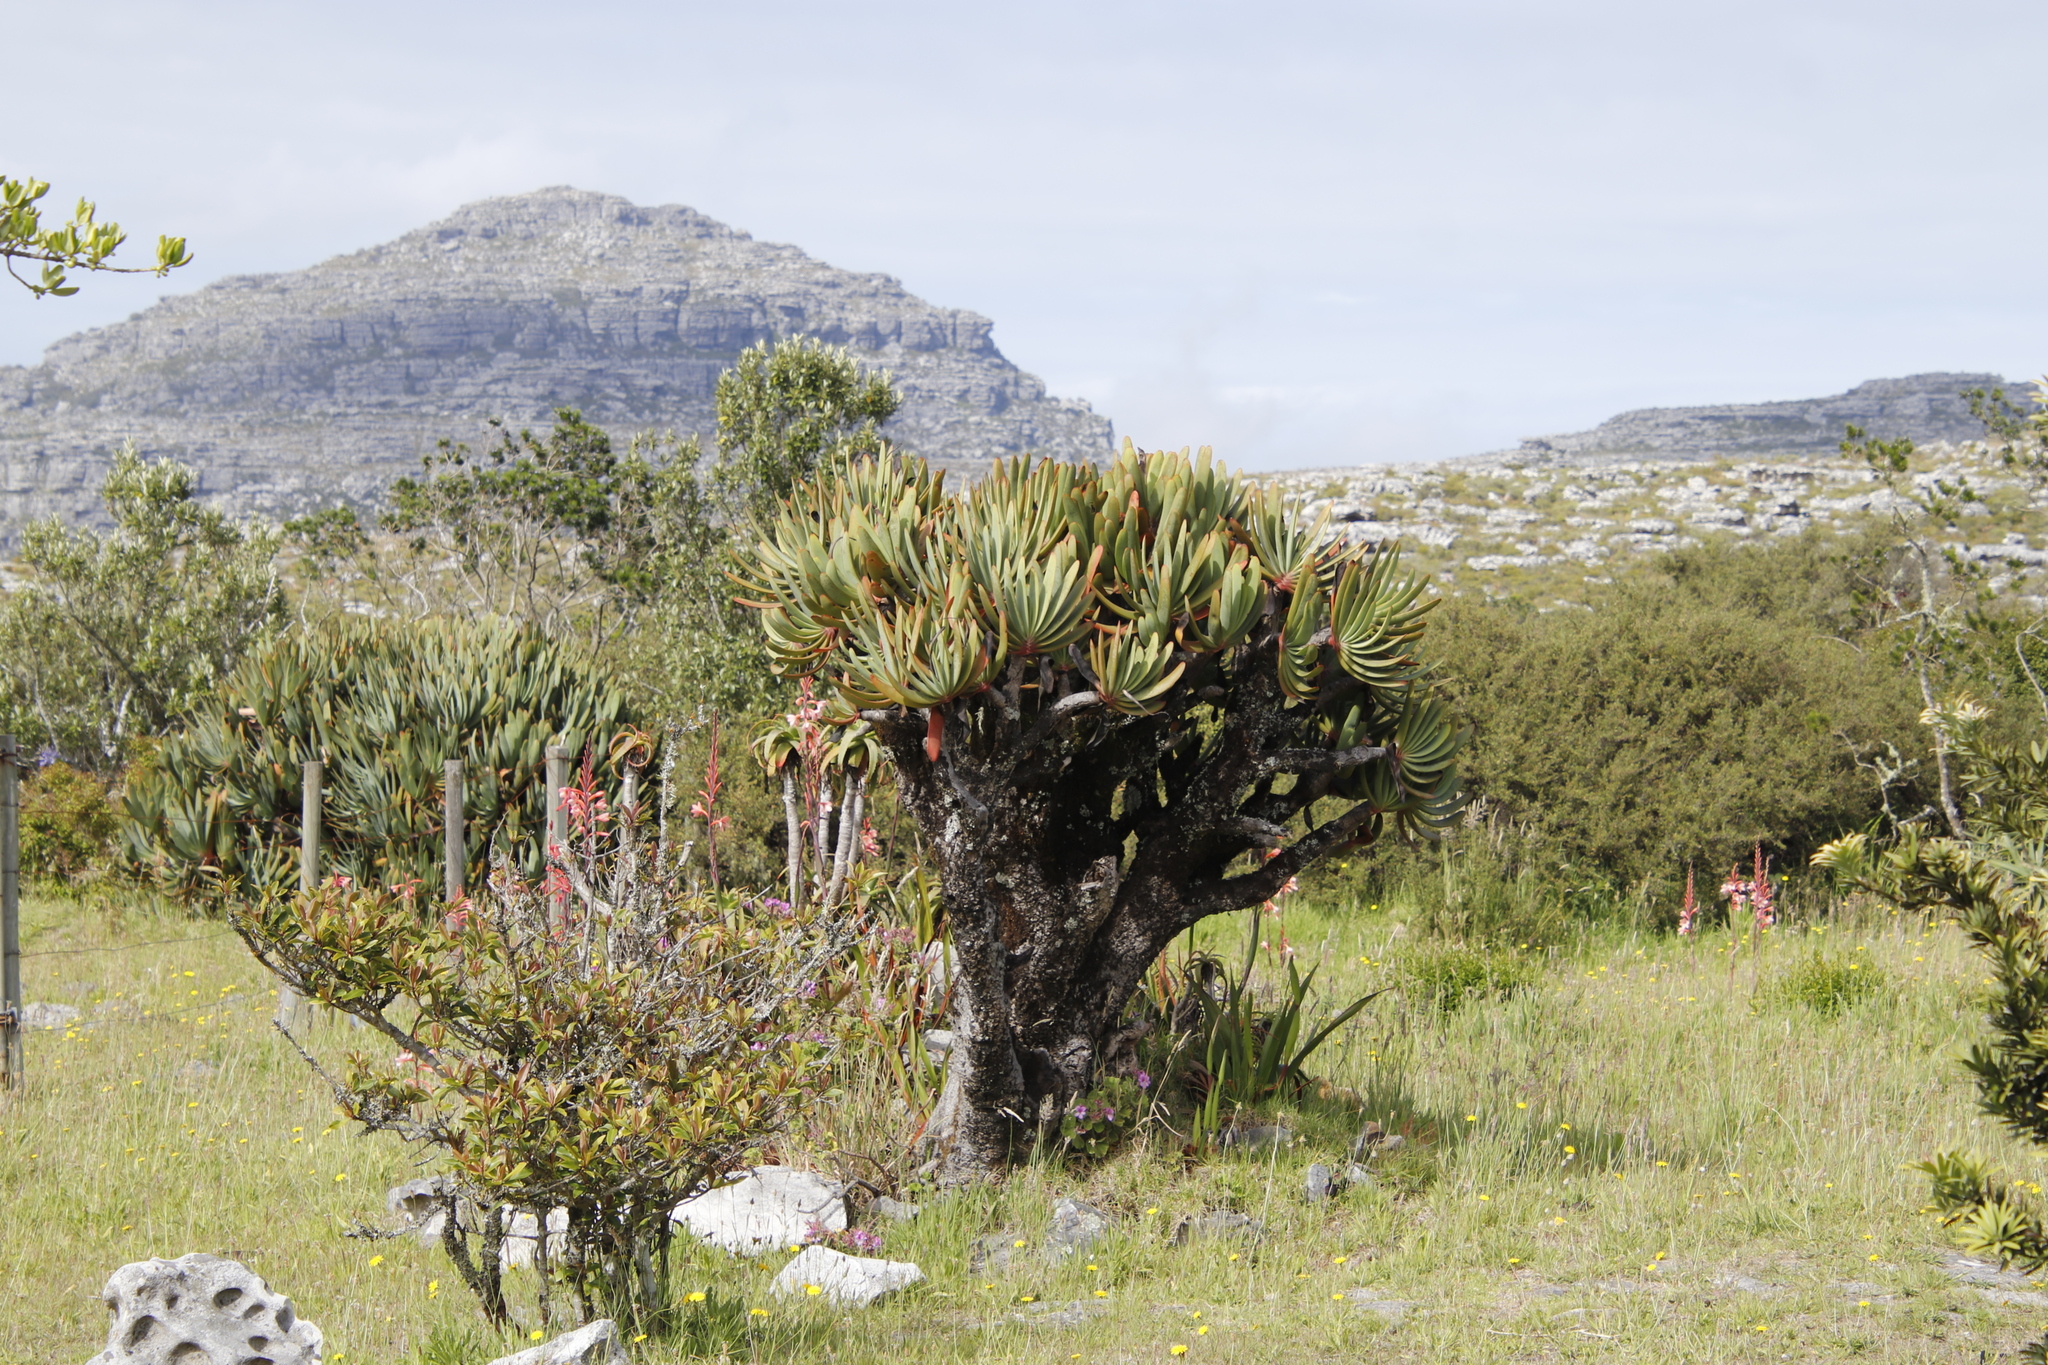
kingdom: Plantae
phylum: Tracheophyta
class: Liliopsida
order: Asparagales
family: Asphodelaceae
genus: Kumara
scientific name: Kumara plicatilis
